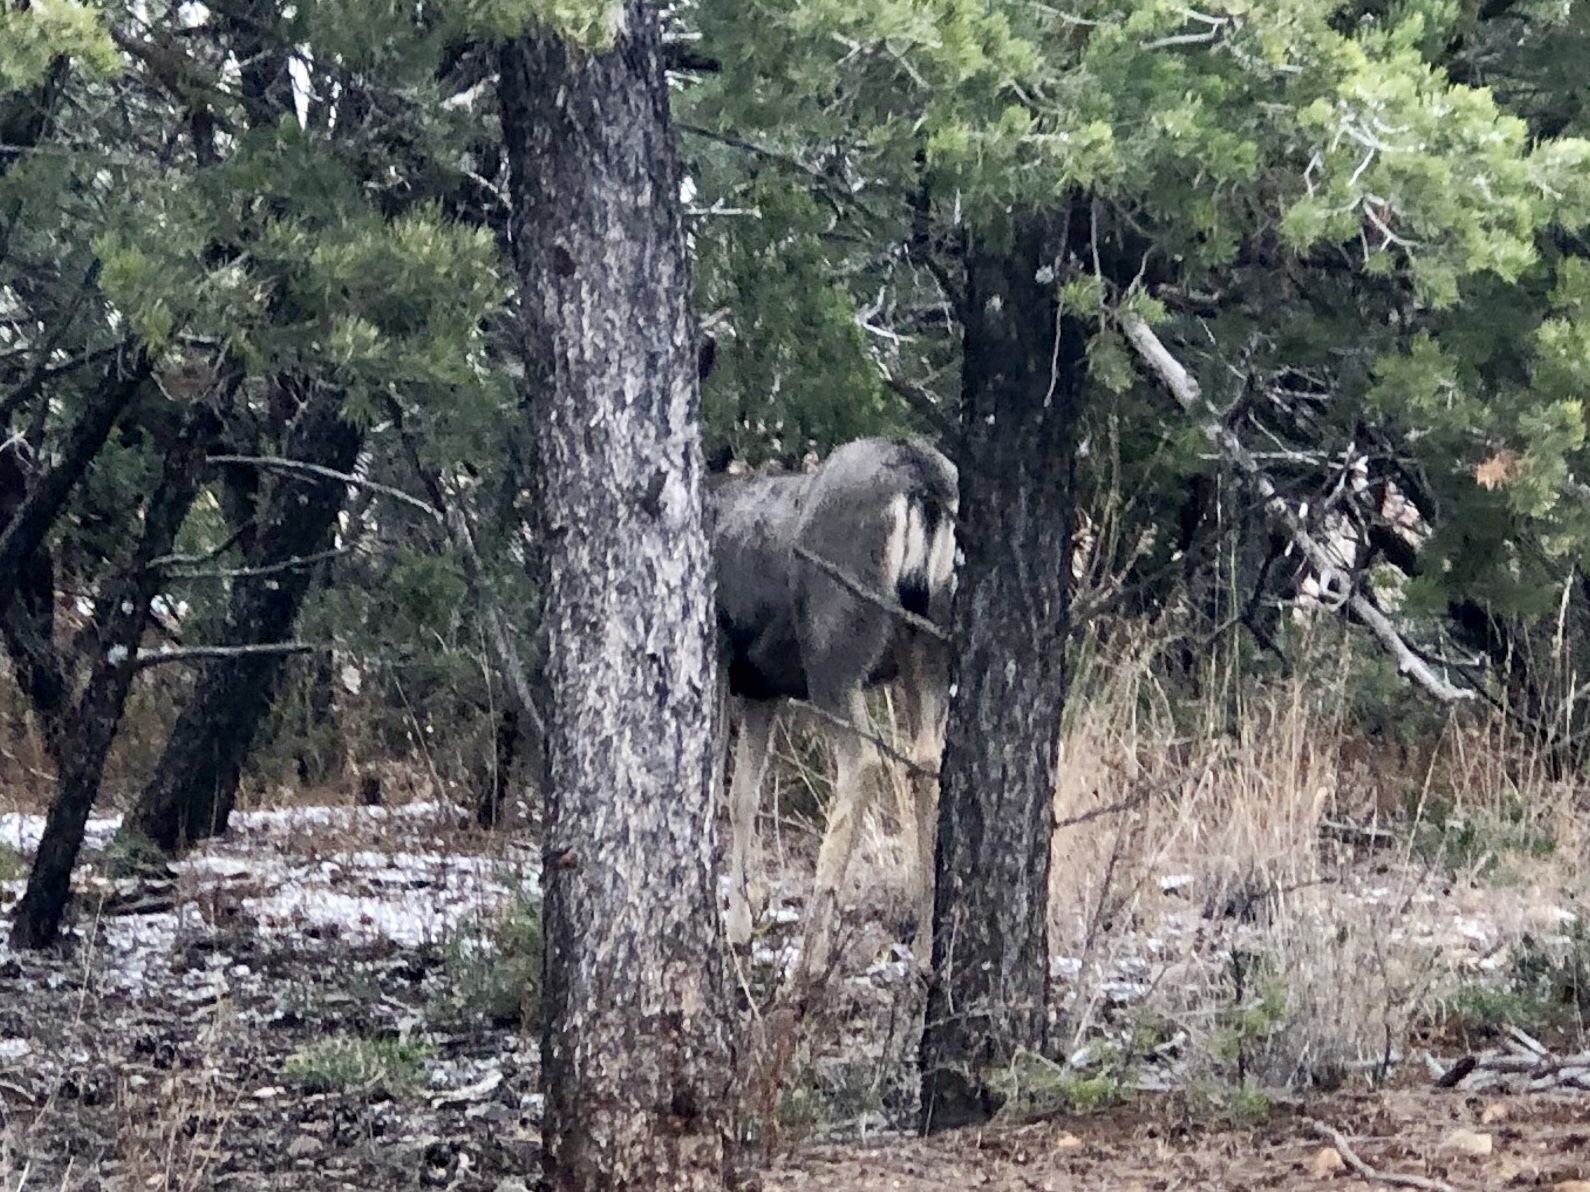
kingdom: Animalia
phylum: Chordata
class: Mammalia
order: Artiodactyla
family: Cervidae
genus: Odocoileus
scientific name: Odocoileus hemionus
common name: Mule deer
